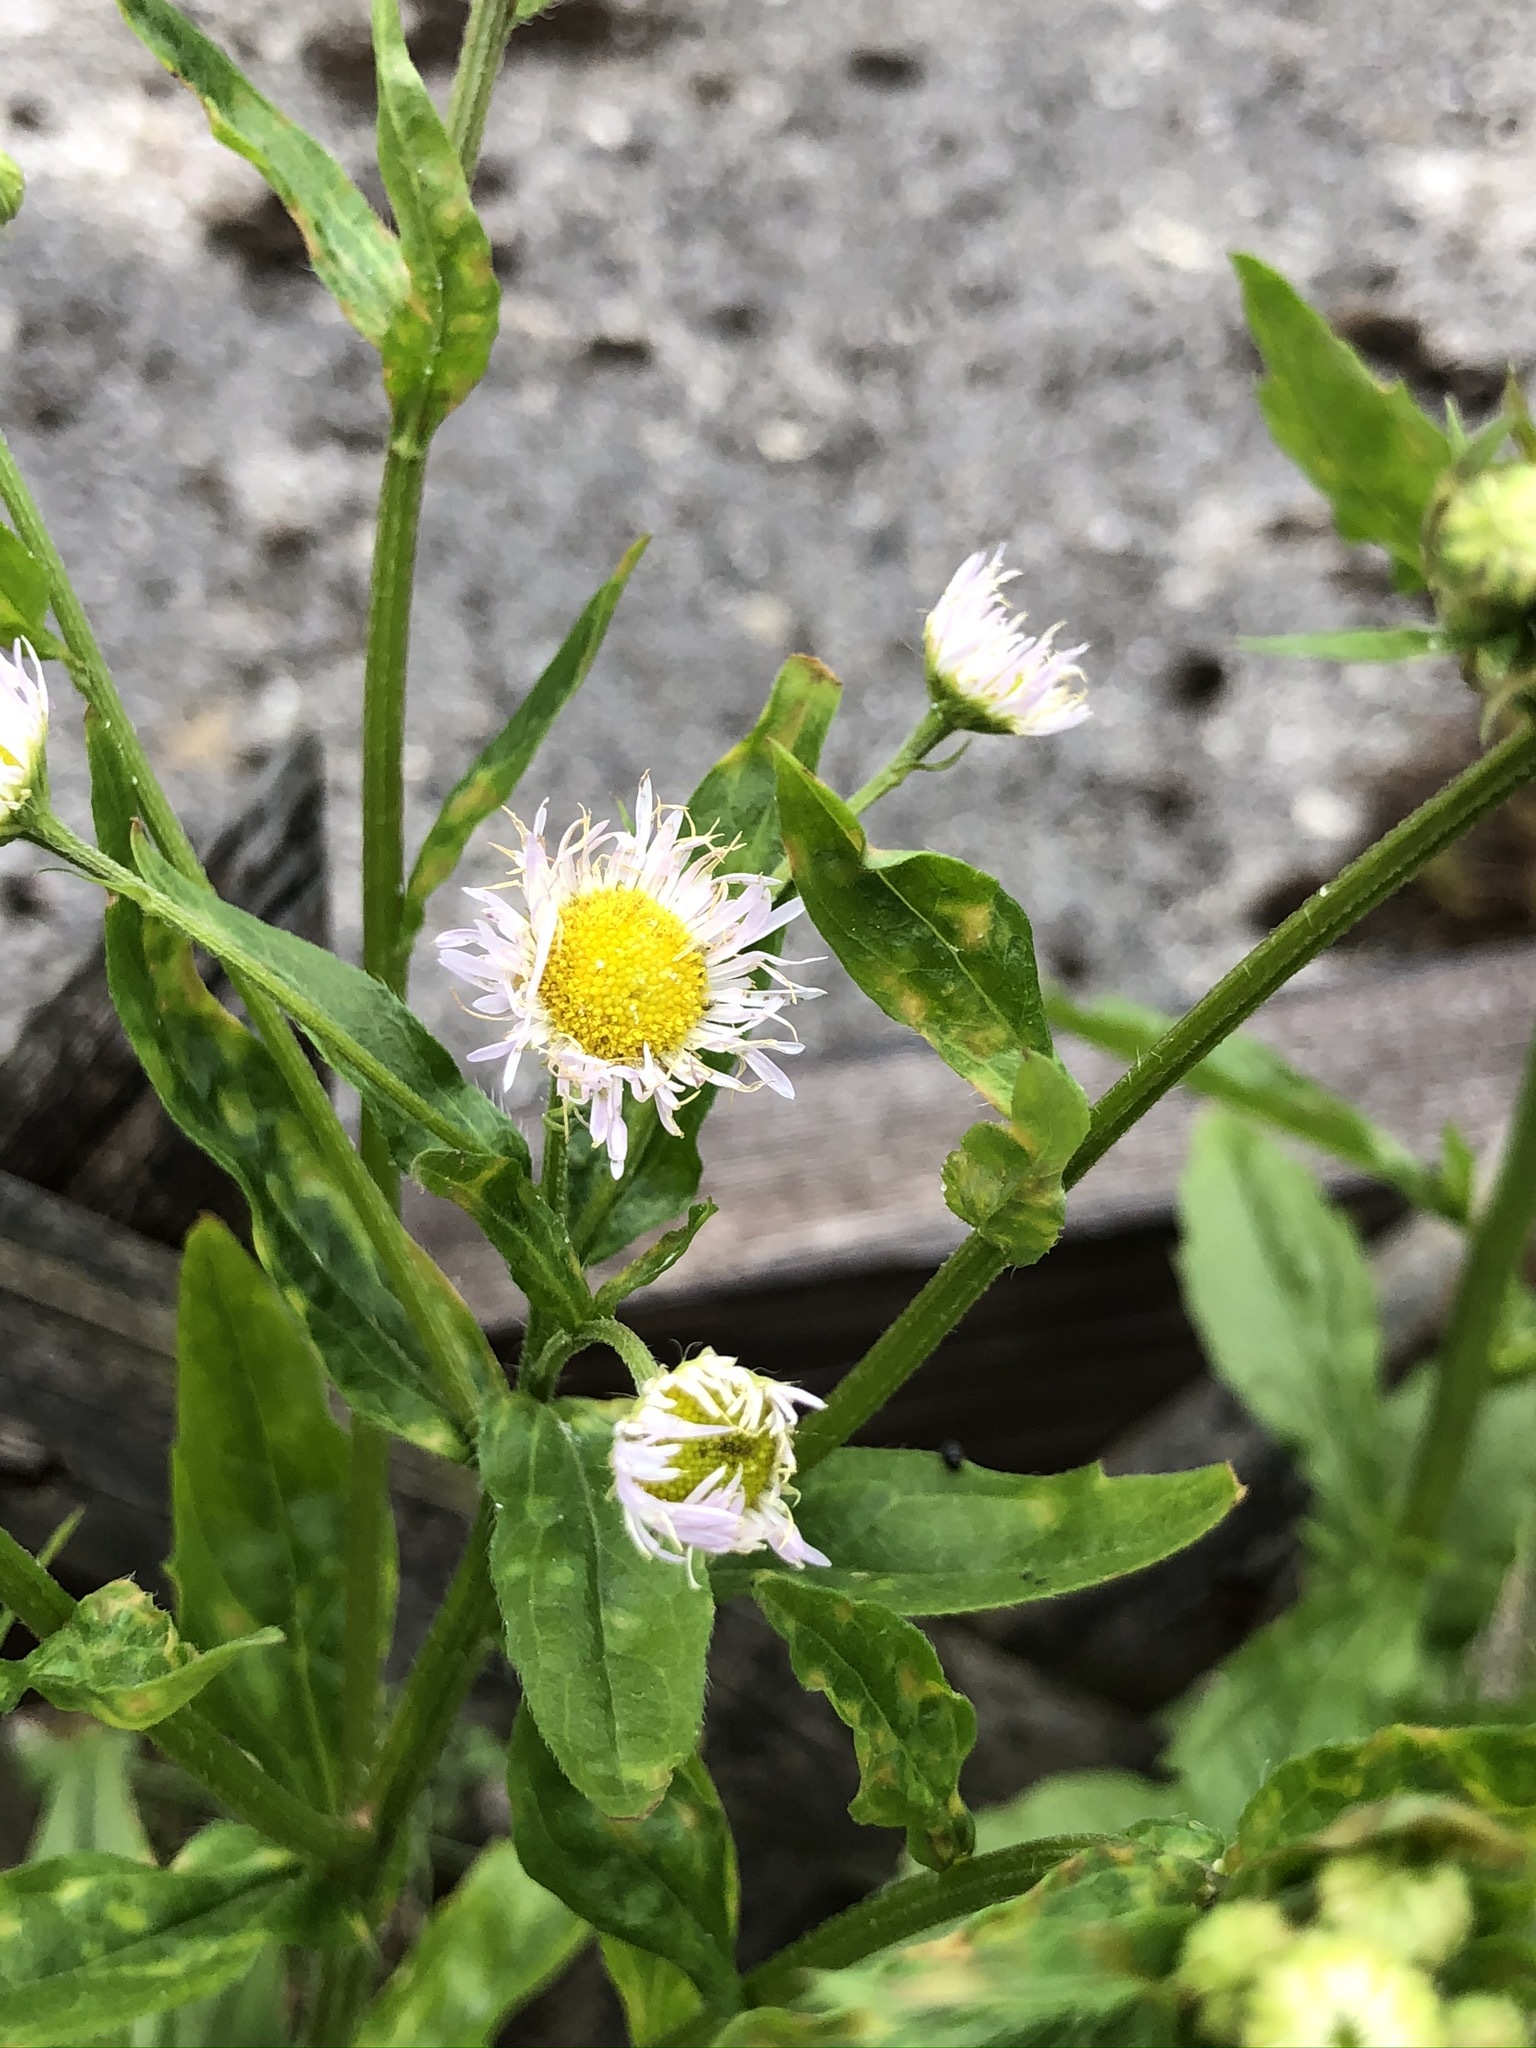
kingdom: Plantae
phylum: Tracheophyta
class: Magnoliopsida
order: Asterales
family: Asteraceae
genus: Erigeron
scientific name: Erigeron annuus
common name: Tall fleabane
